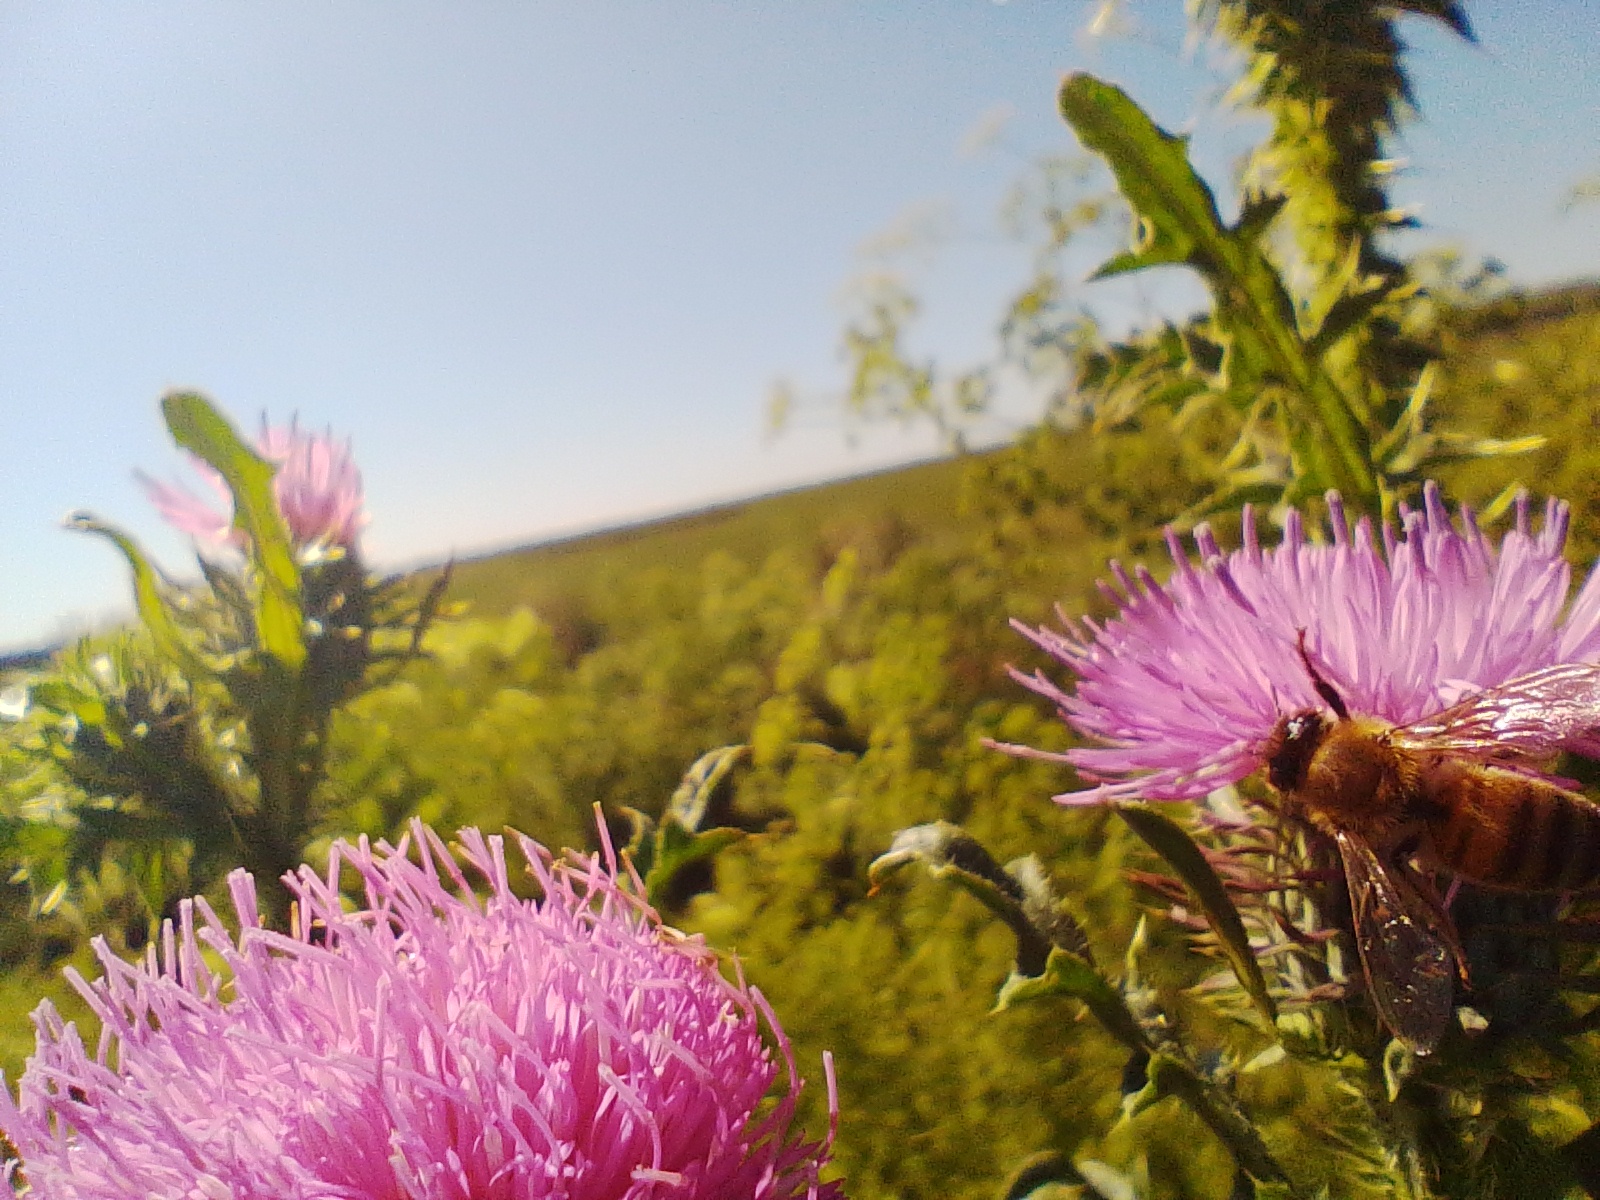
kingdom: Animalia
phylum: Arthropoda
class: Insecta
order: Hymenoptera
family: Apidae
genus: Apis
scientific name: Apis mellifera
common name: Honey bee
